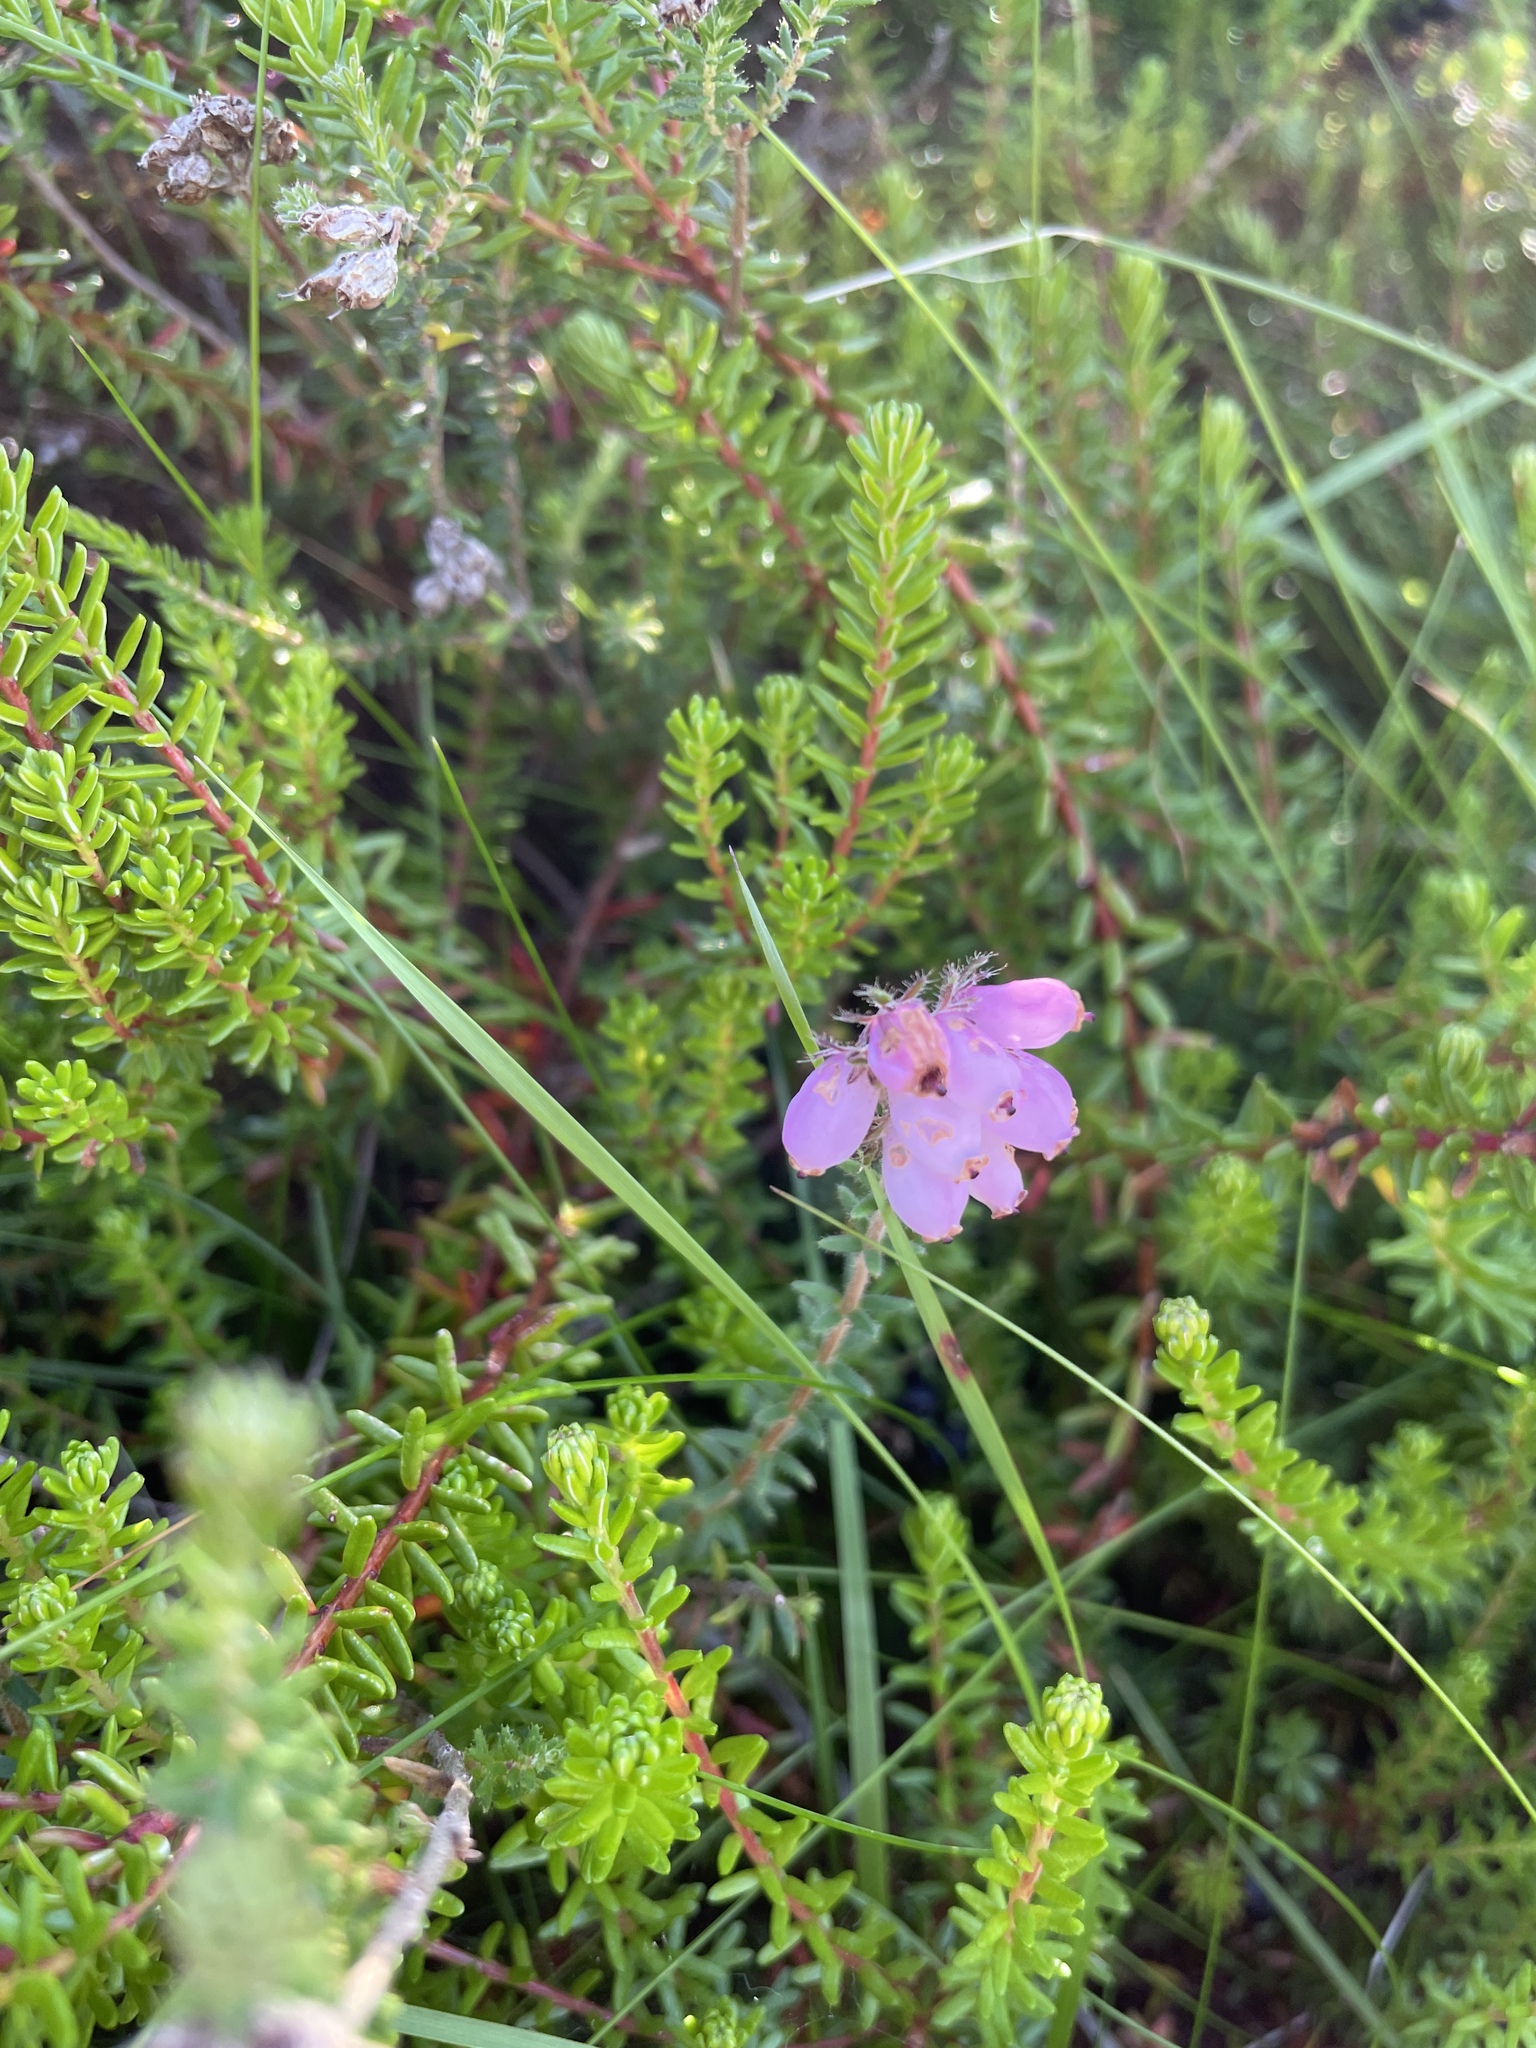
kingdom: Plantae
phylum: Tracheophyta
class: Magnoliopsida
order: Ericales
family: Ericaceae
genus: Erica
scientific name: Erica tetralix
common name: Cross-leaved heath
